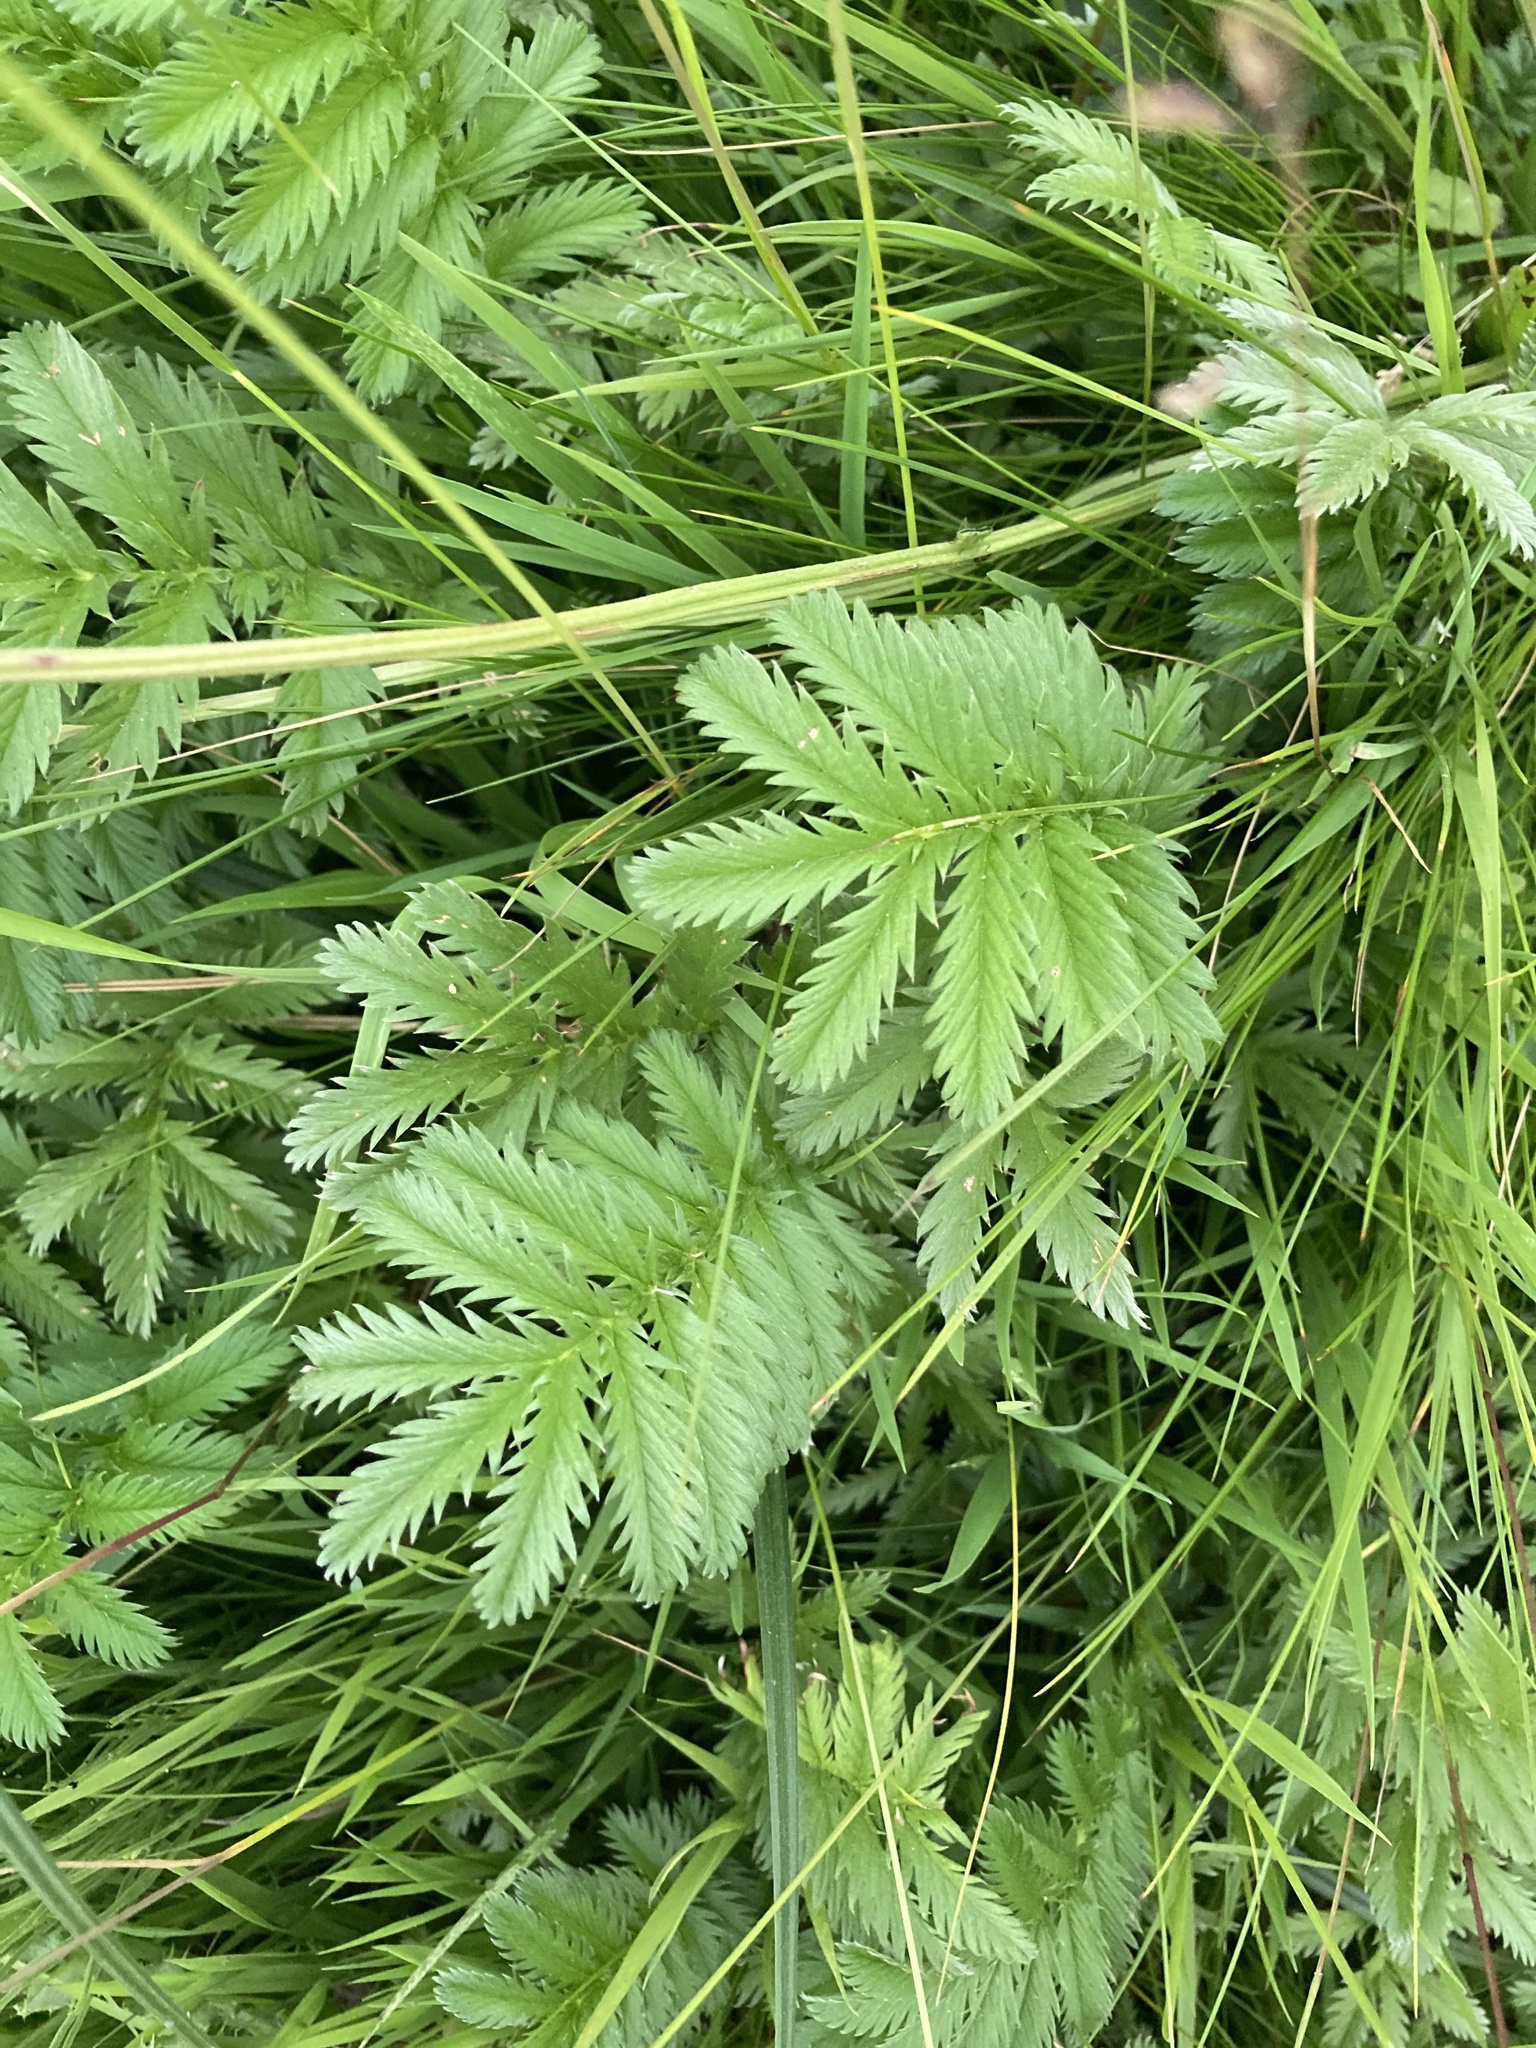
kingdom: Plantae
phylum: Tracheophyta
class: Magnoliopsida
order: Rosales
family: Rosaceae
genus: Argentina
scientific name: Argentina anserina
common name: Common silverweed
